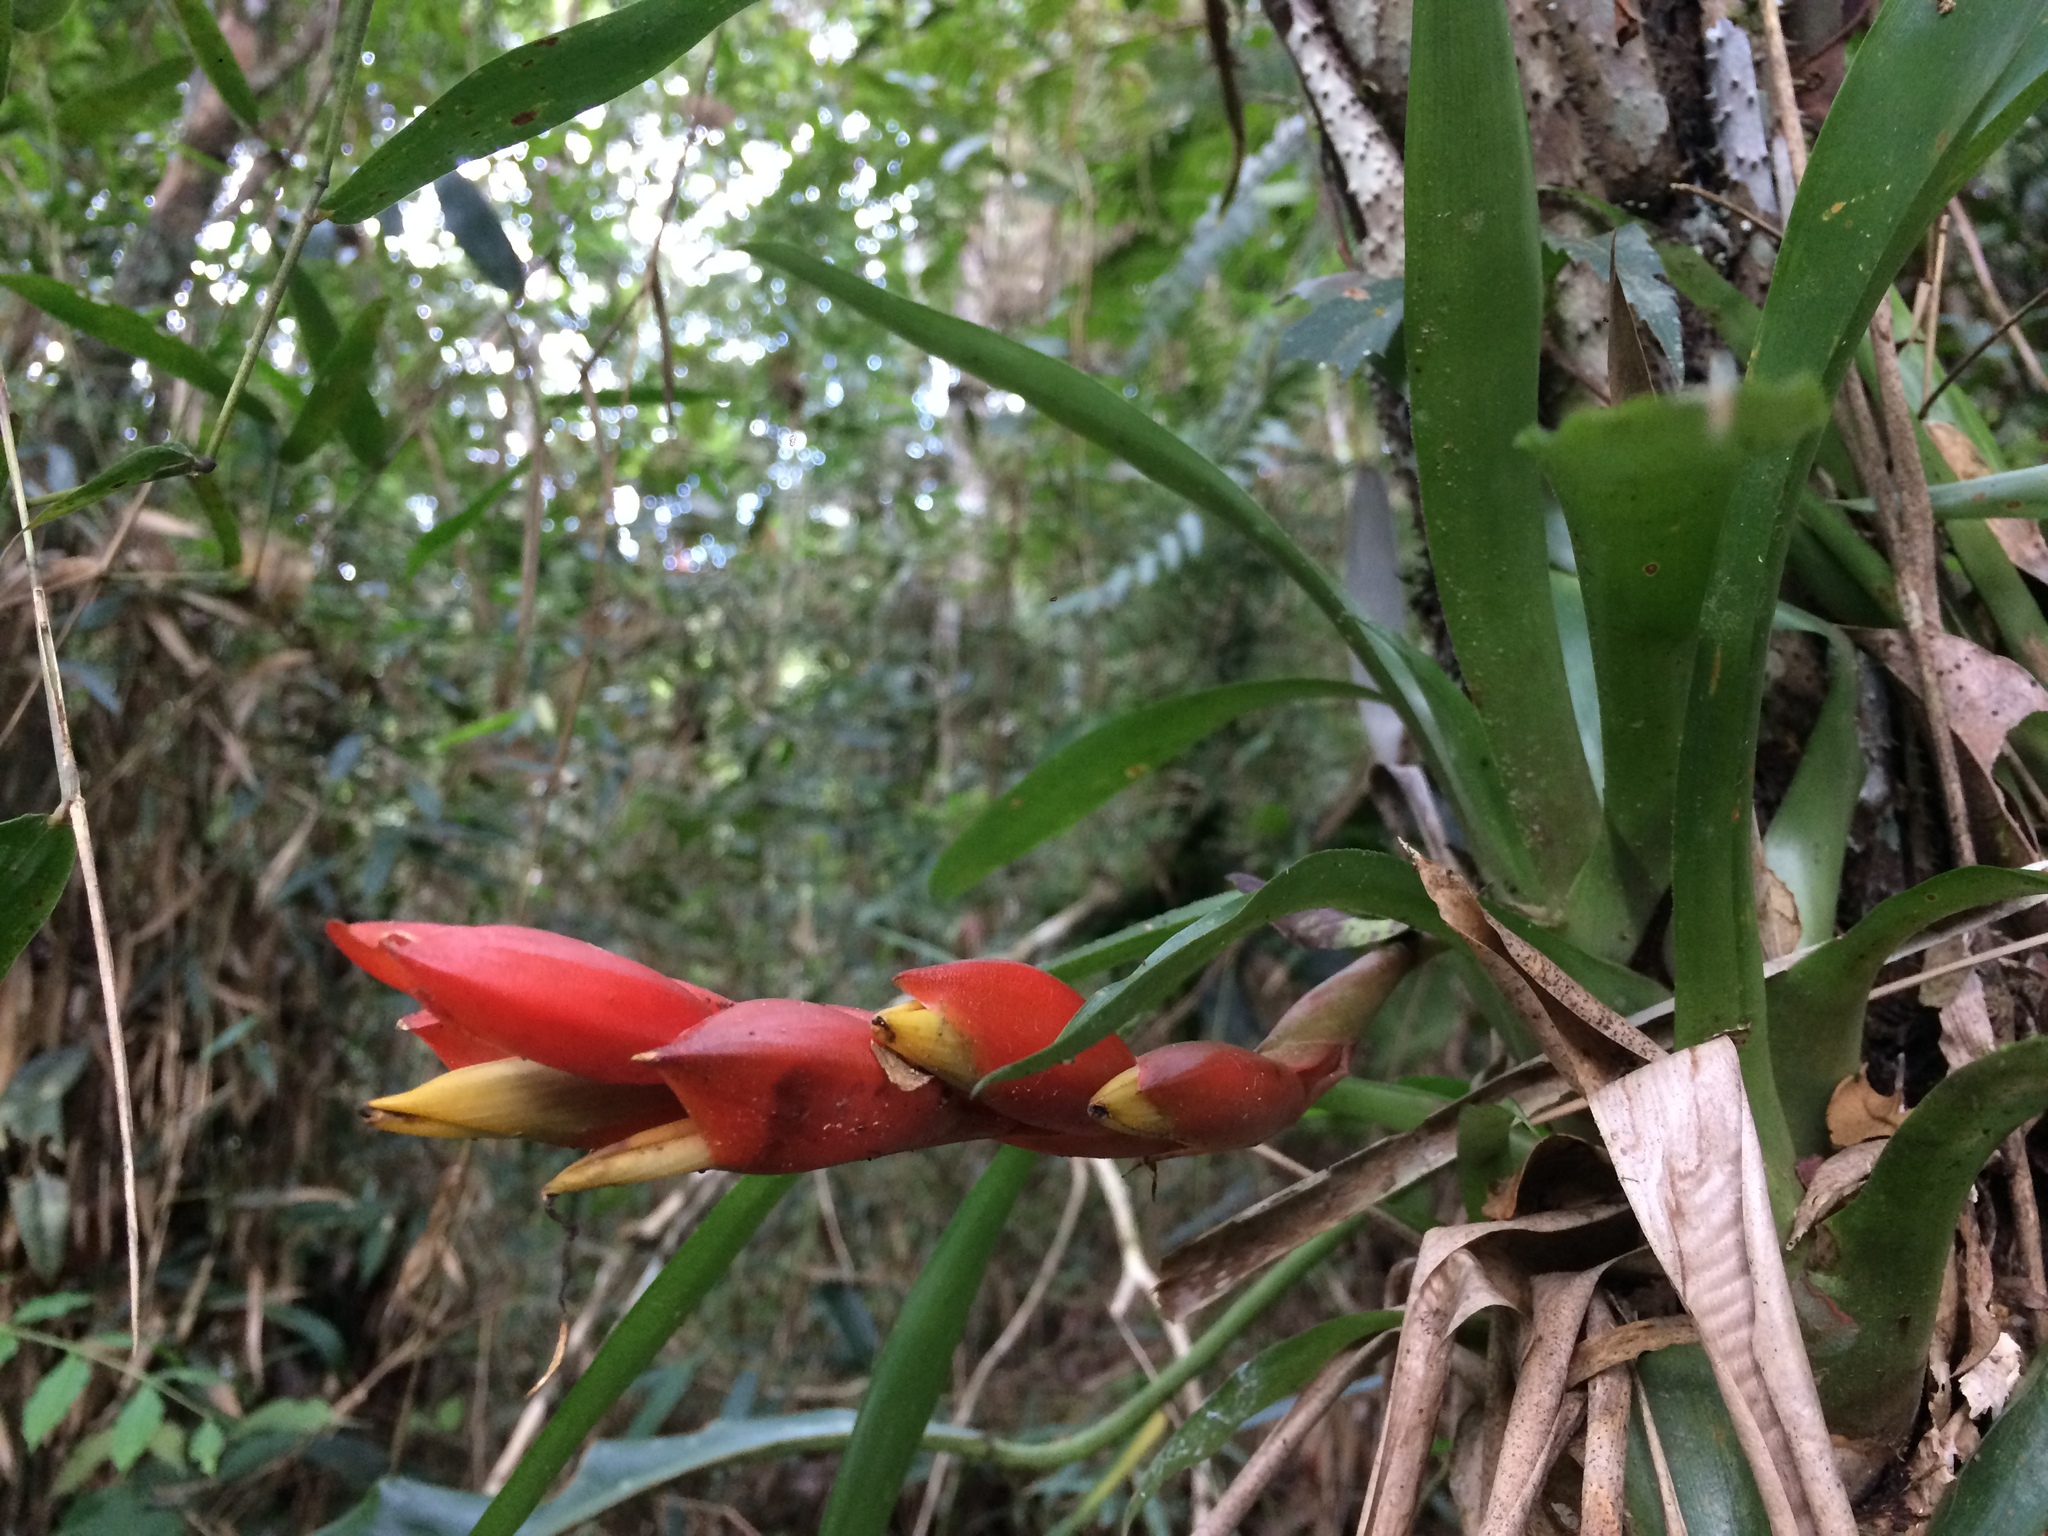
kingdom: Plantae
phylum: Tracheophyta
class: Liliopsida
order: Poales
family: Bromeliaceae
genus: Vriesea
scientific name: Vriesea heterostachys
